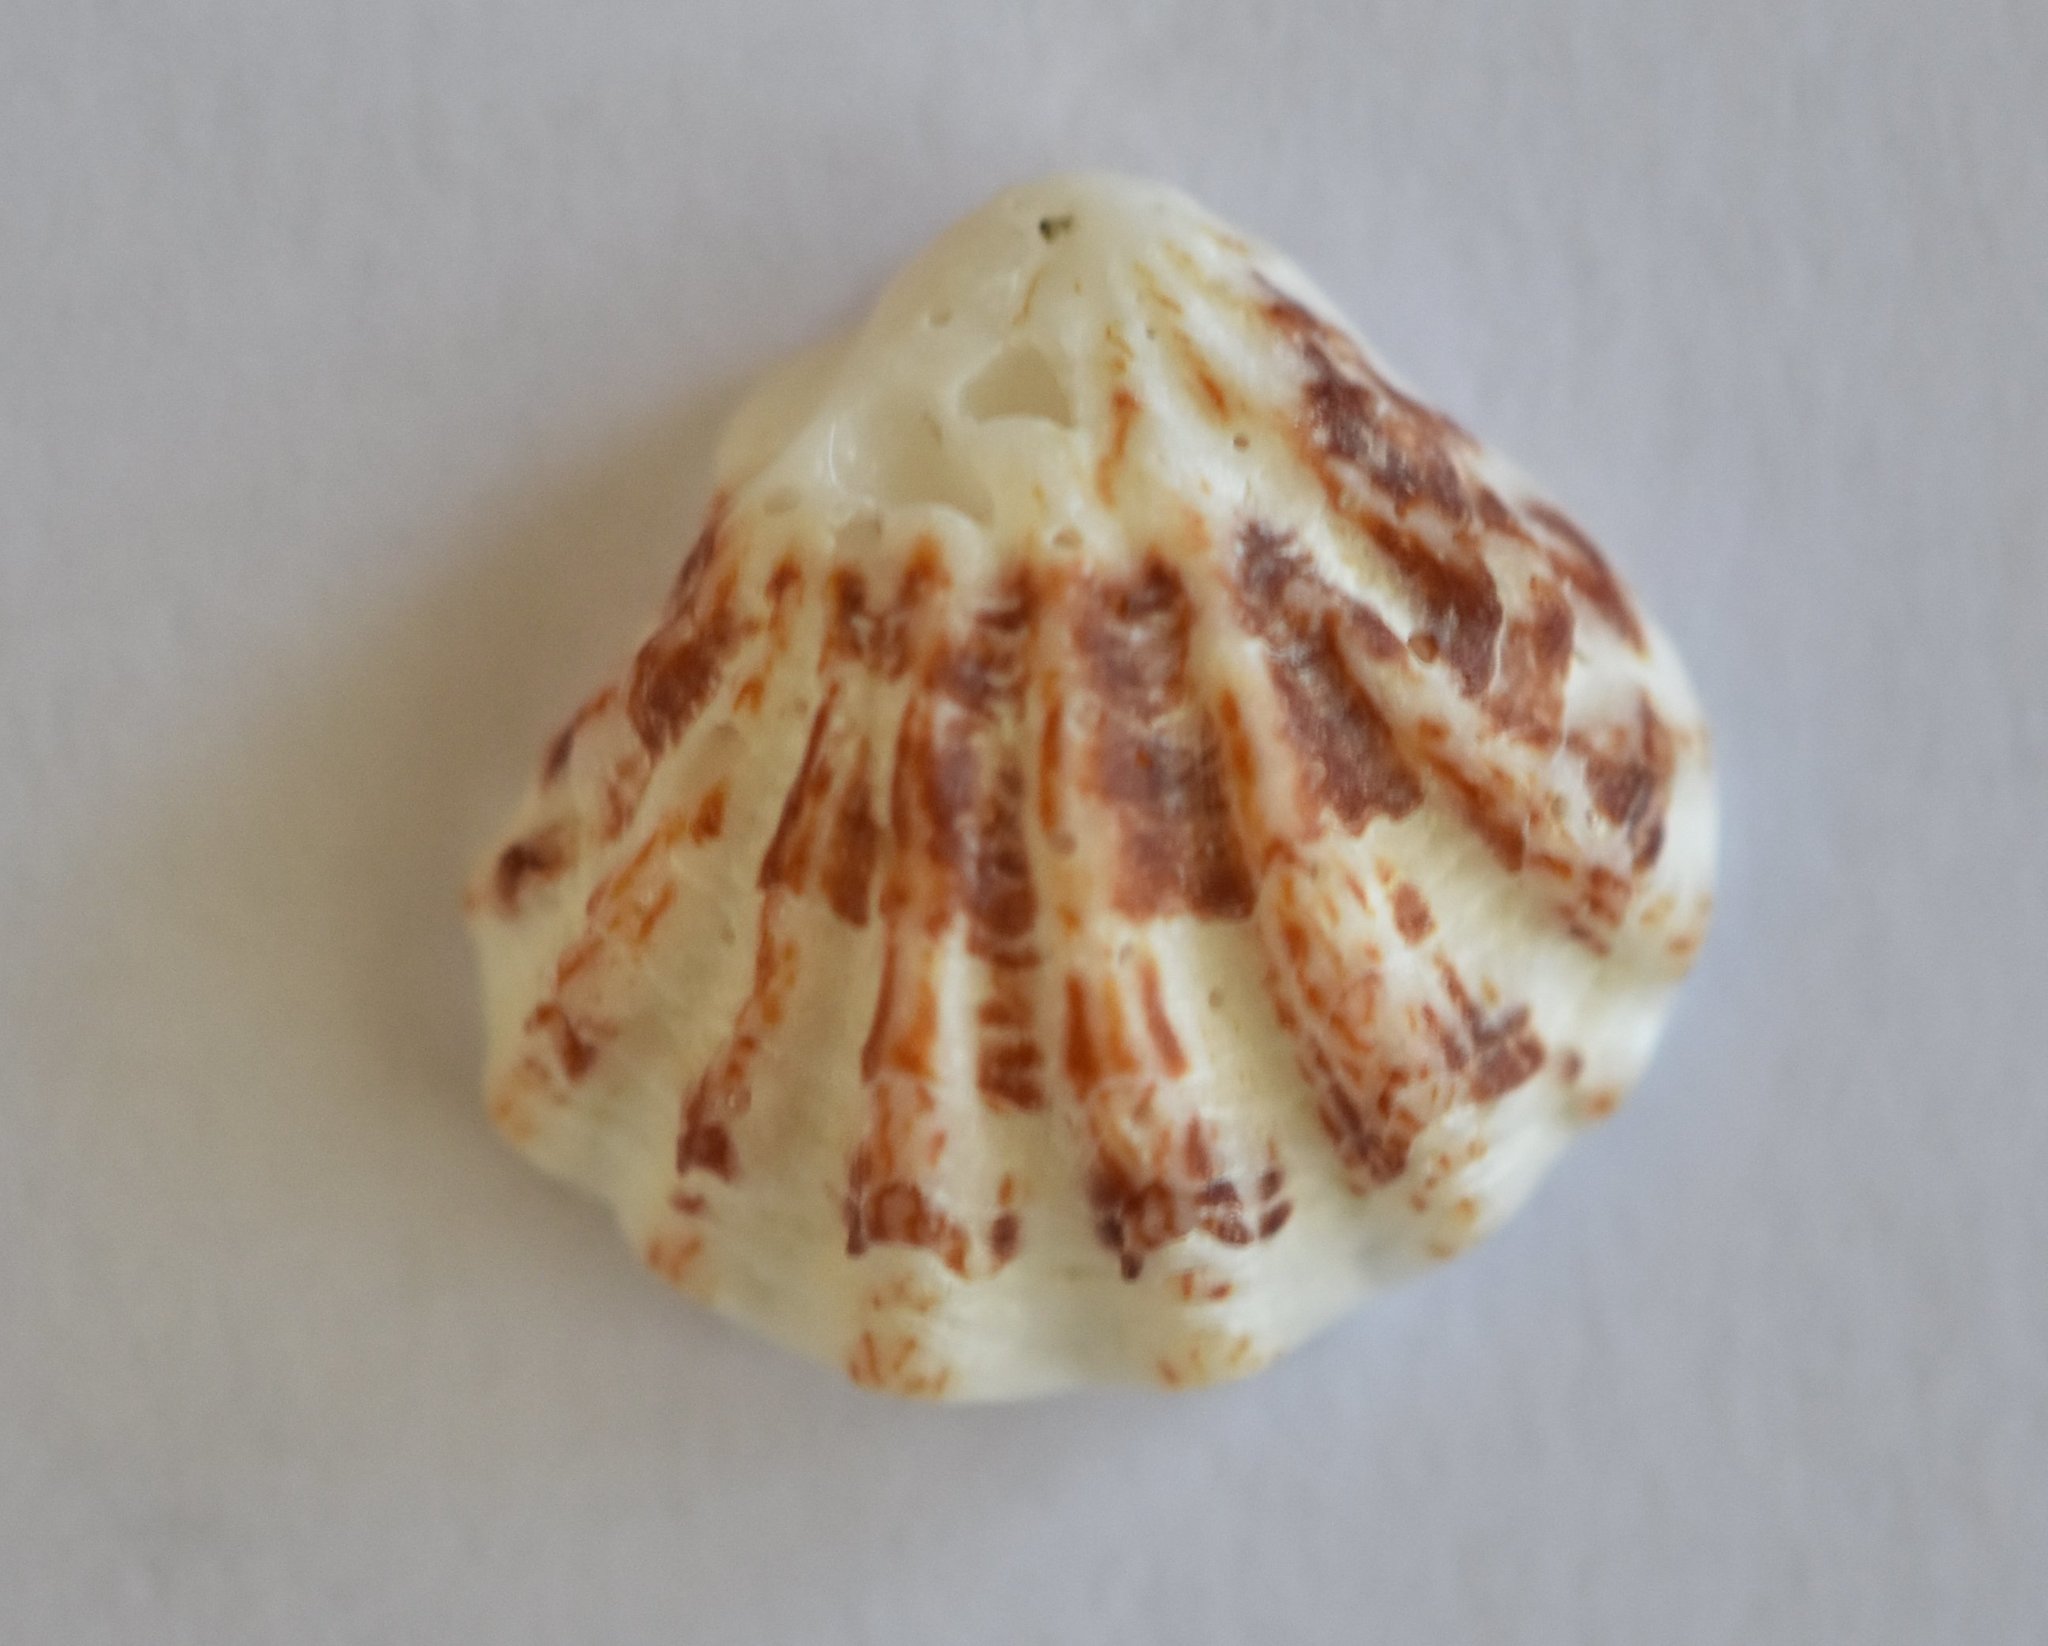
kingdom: Animalia
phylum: Mollusca
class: Bivalvia
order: Pectinida
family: Plicatulidae
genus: Plicatula
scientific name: Plicatula gibbosa
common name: Atlantic kitten's paw
